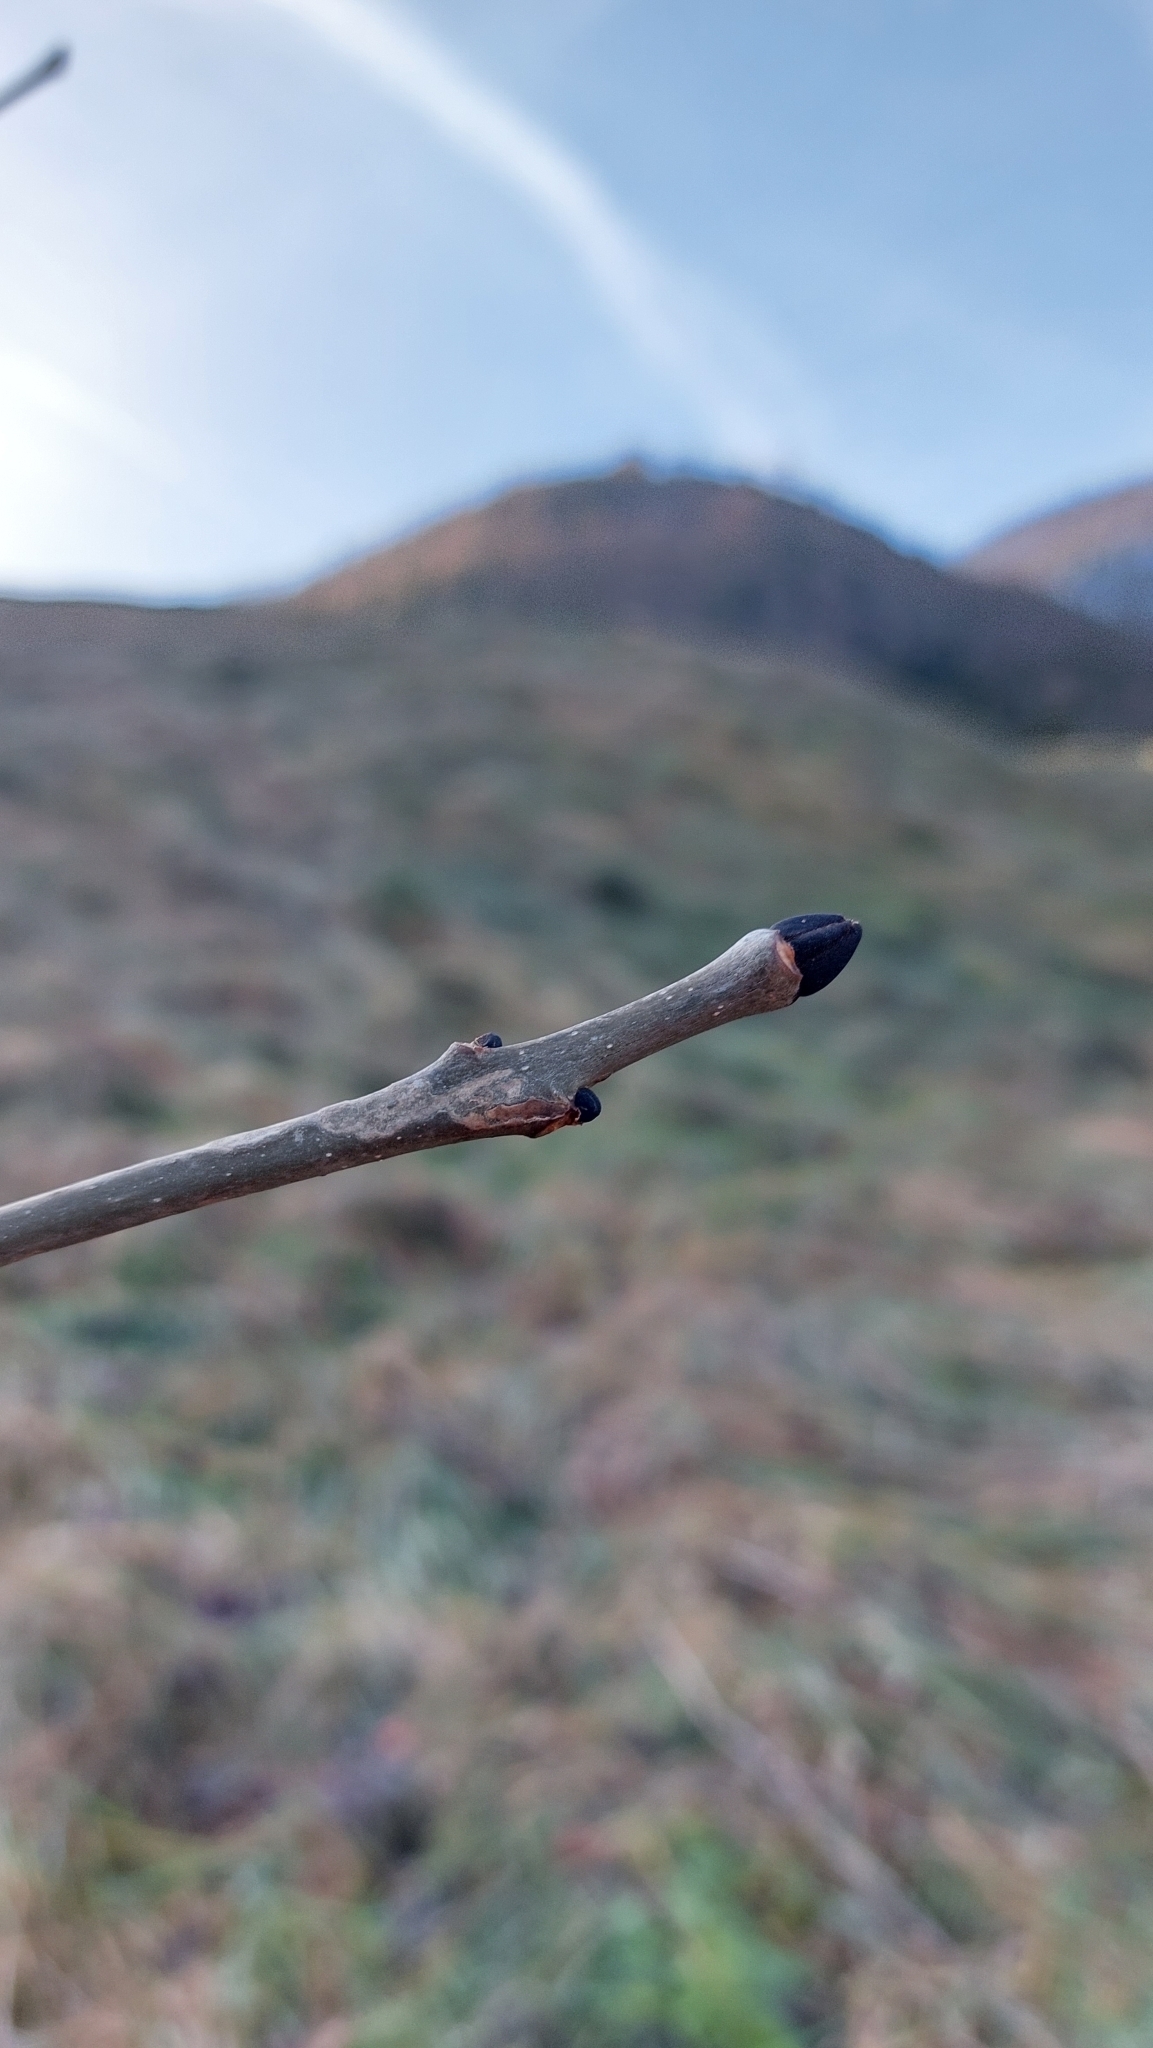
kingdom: Plantae
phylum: Tracheophyta
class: Magnoliopsida
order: Lamiales
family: Oleaceae
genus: Fraxinus
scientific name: Fraxinus excelsior
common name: European ash
